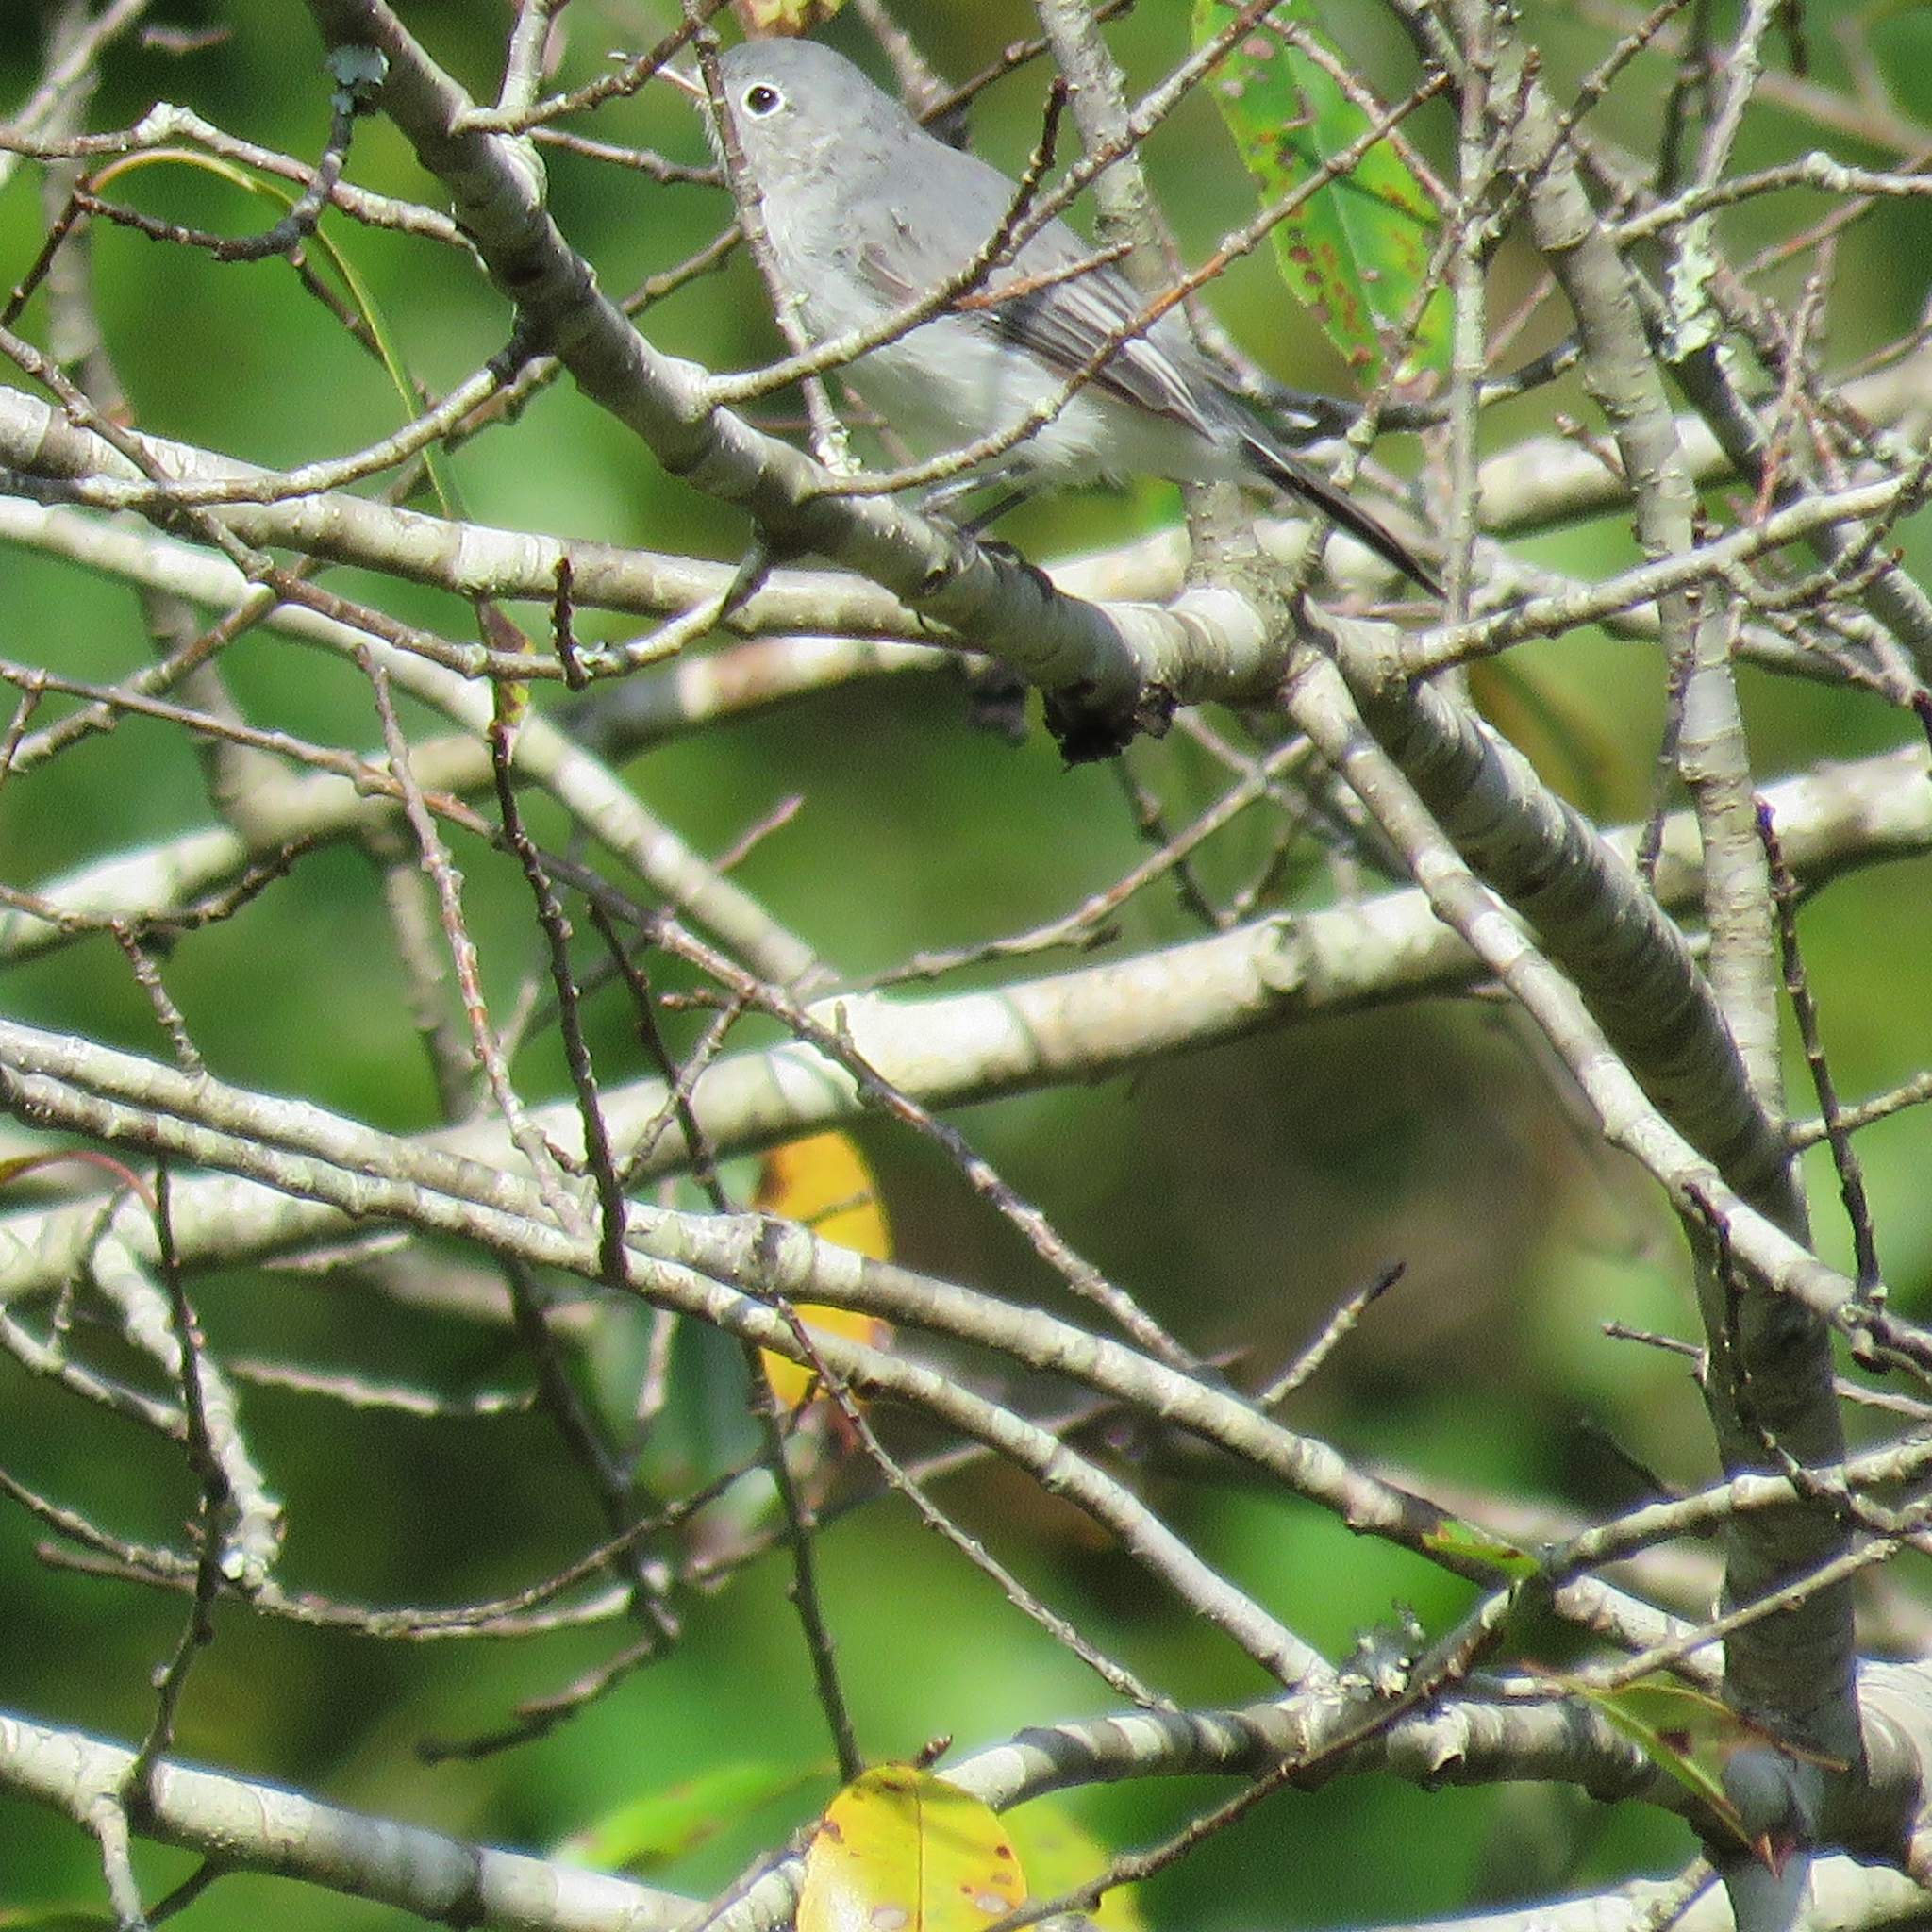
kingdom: Animalia
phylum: Chordata
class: Aves
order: Passeriformes
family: Polioptilidae
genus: Polioptila
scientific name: Polioptila caerulea
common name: Blue-gray gnatcatcher
